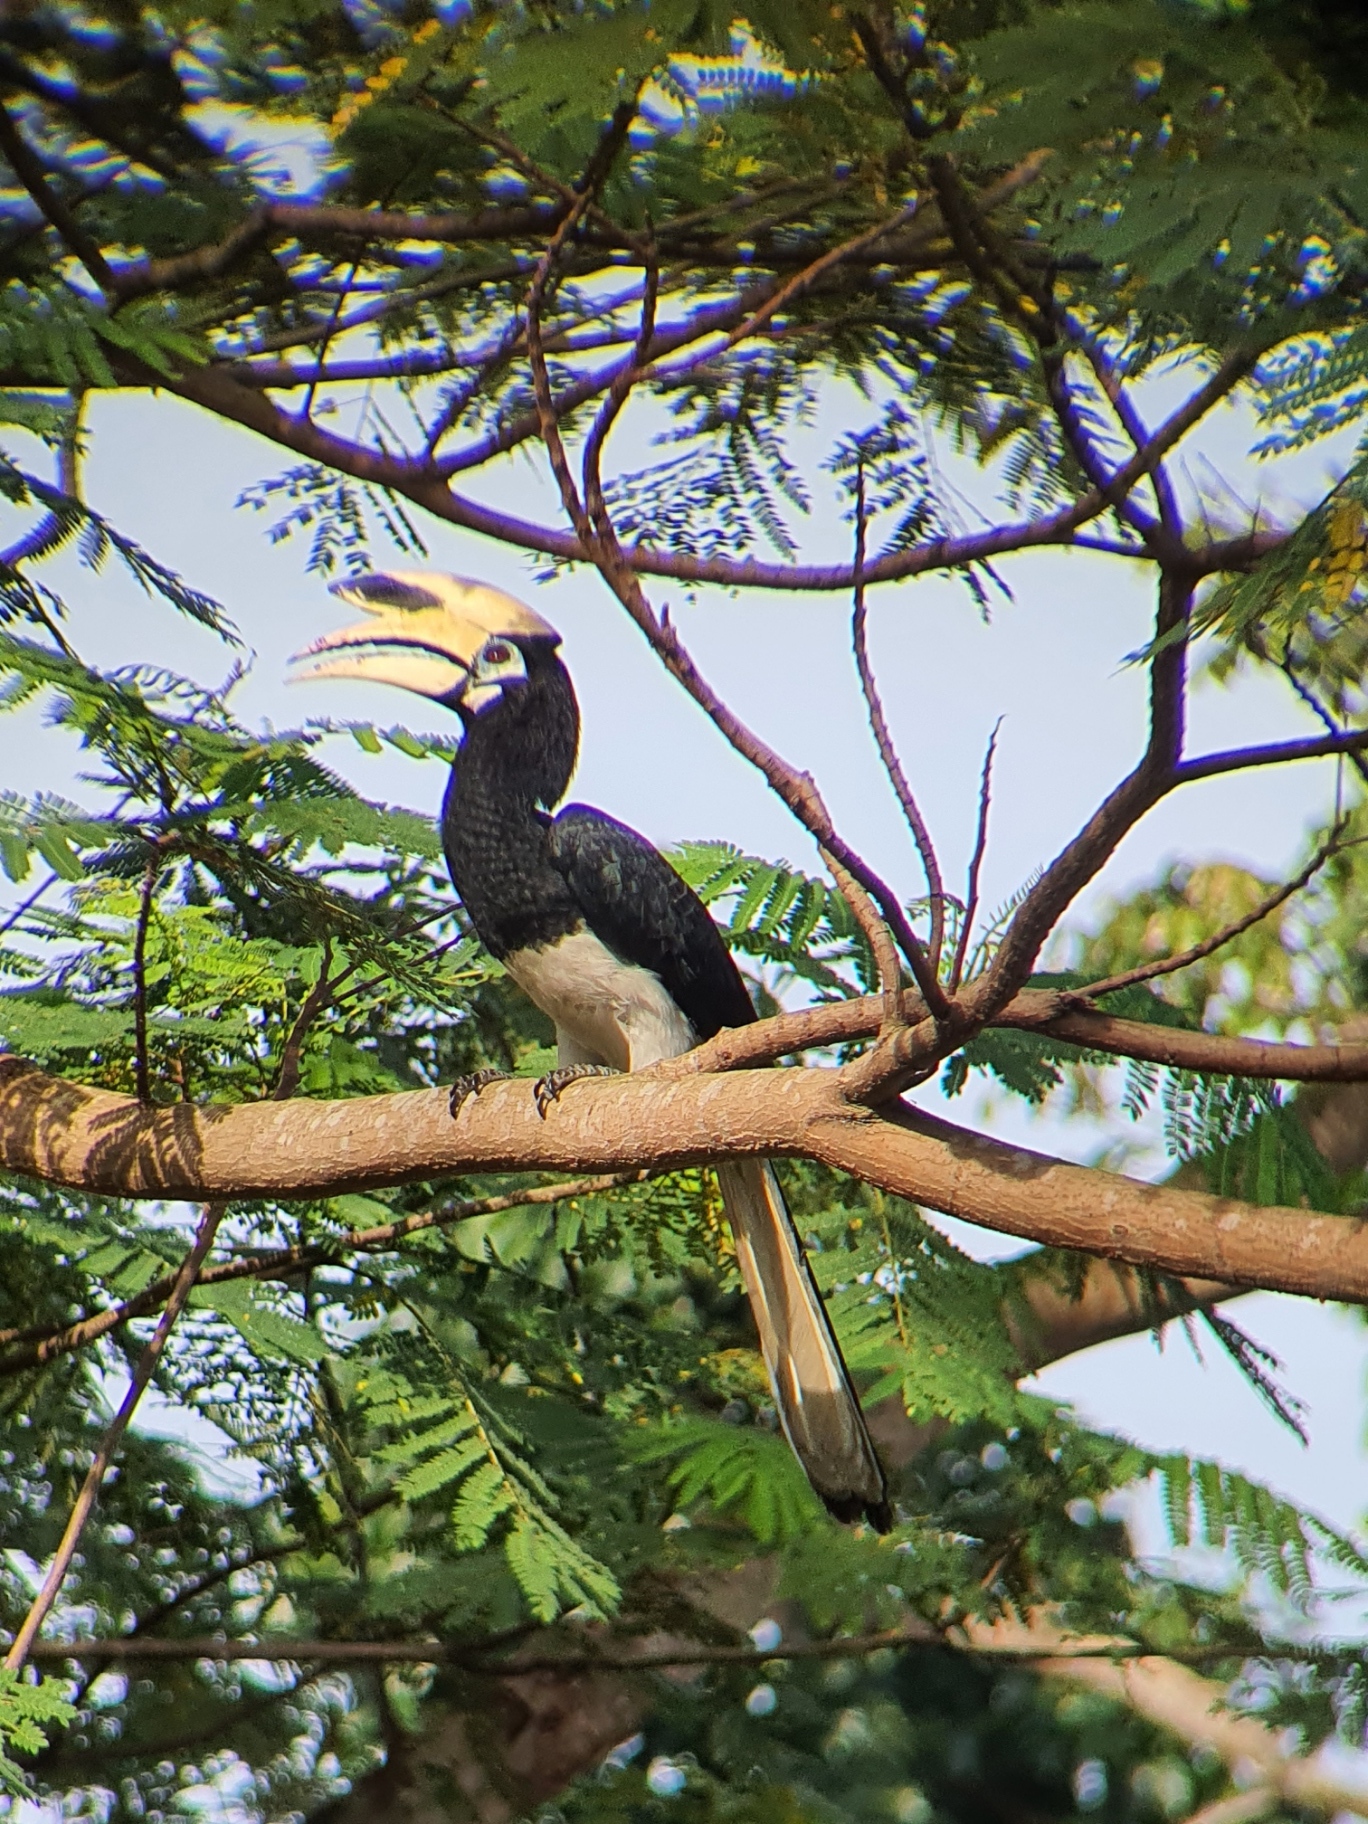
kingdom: Animalia
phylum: Chordata
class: Aves
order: Bucerotiformes
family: Bucerotidae
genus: Anthracoceros
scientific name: Anthracoceros albirostris
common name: Oriental pied-hornbill
